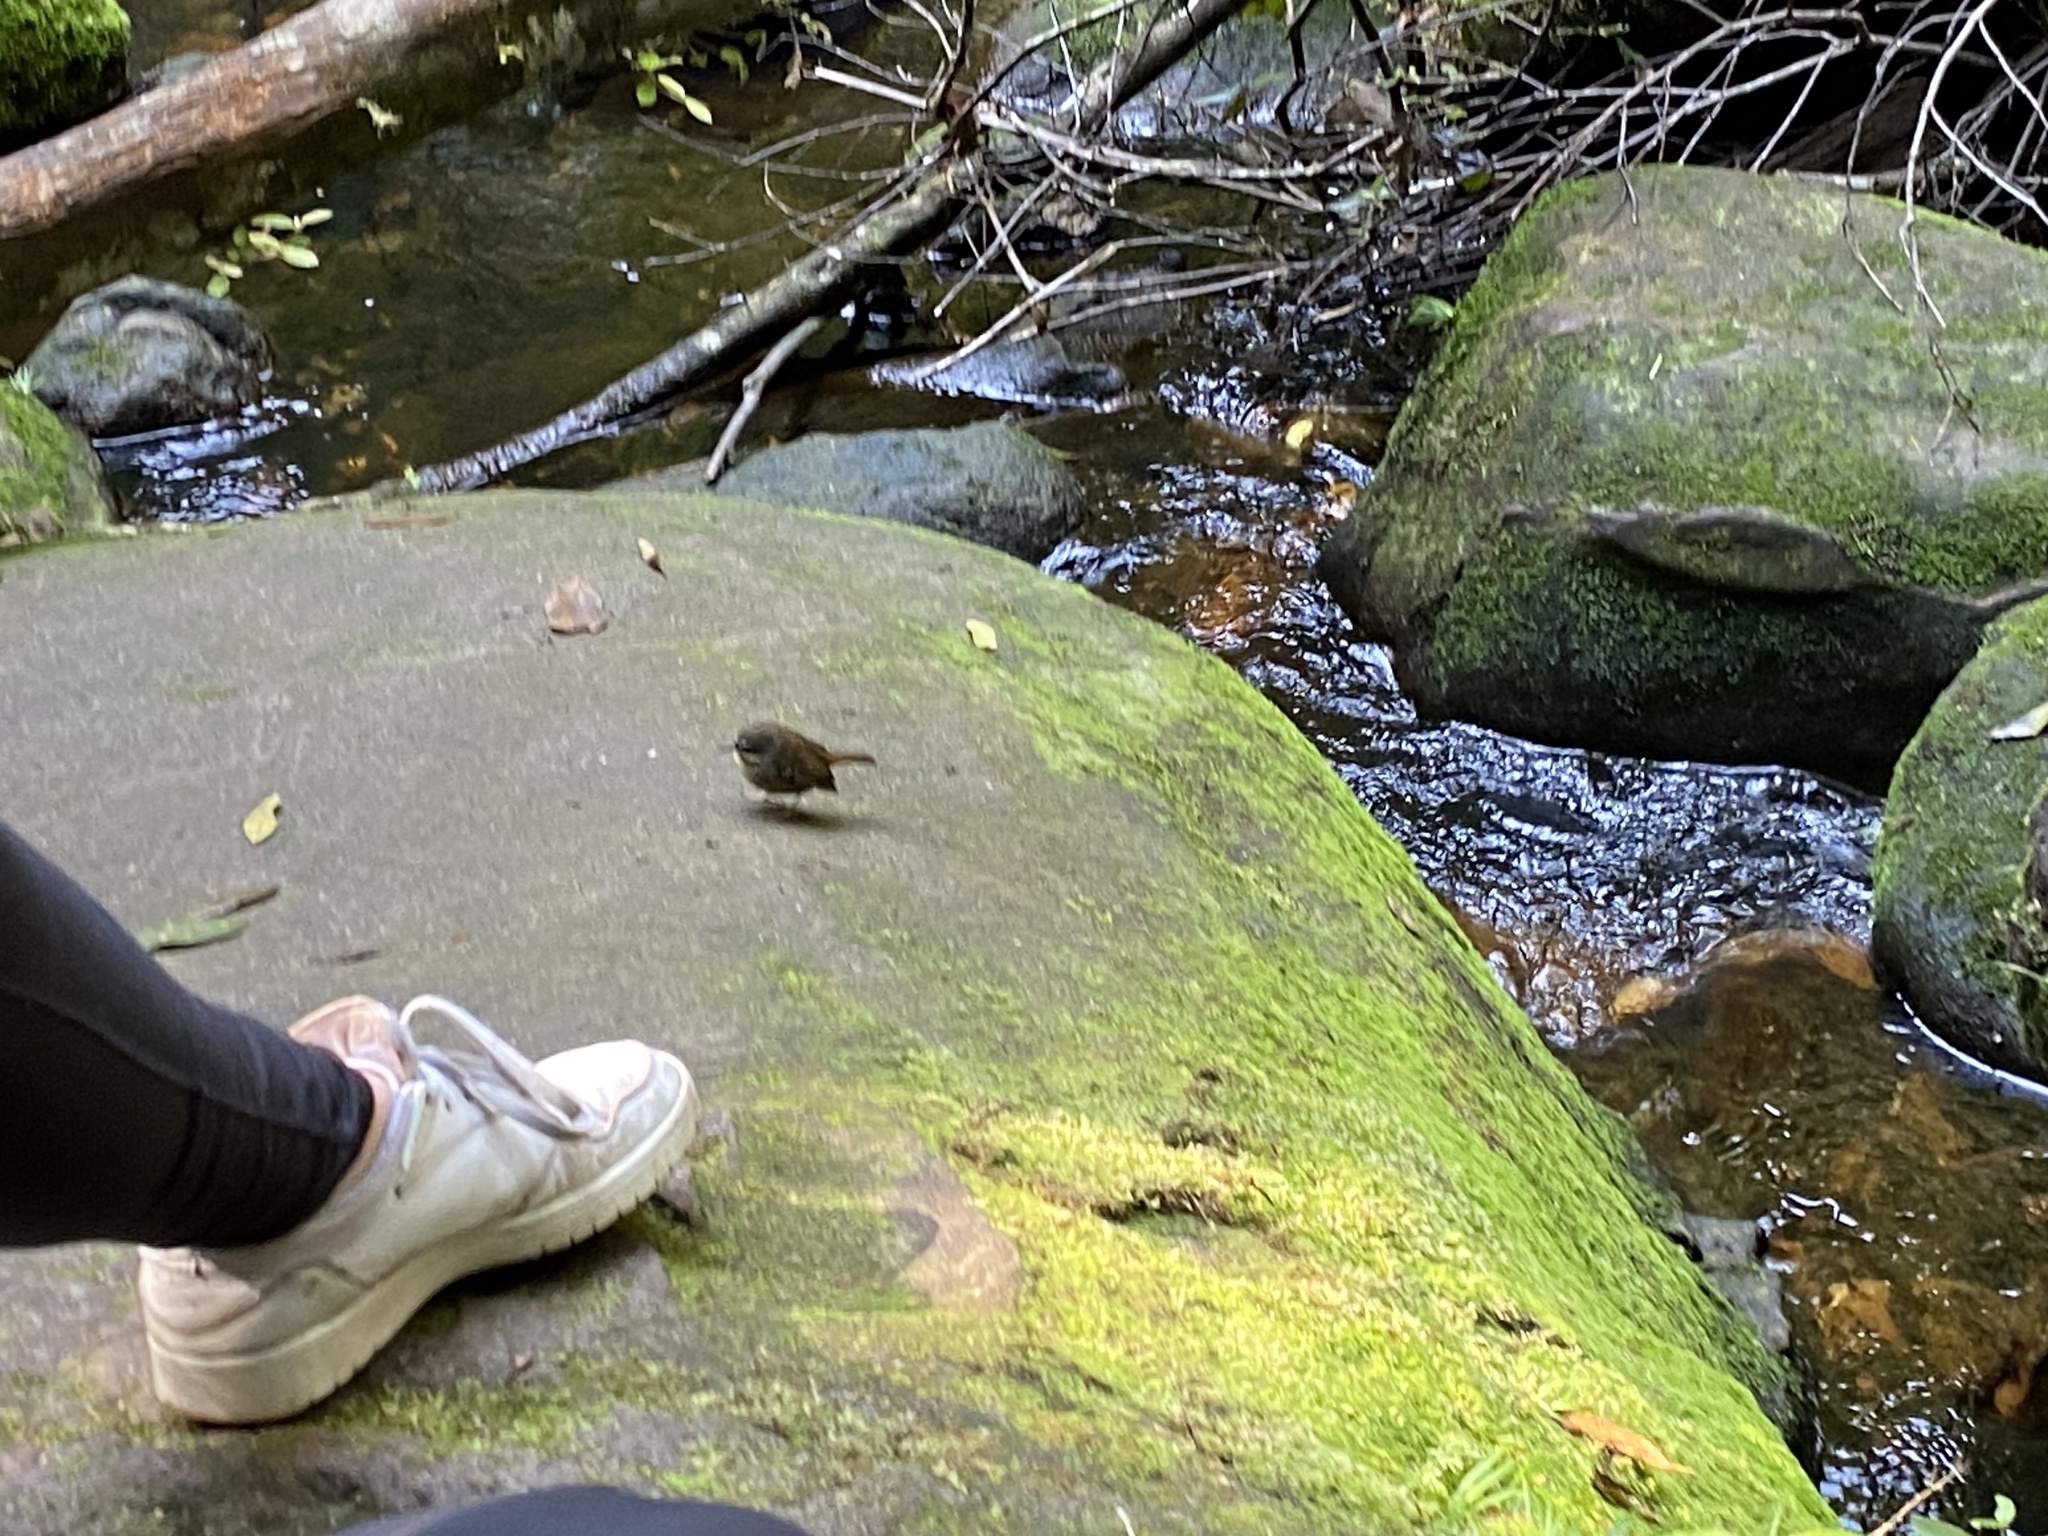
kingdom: Animalia
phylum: Chordata
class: Aves
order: Passeriformes
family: Acanthizidae
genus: Sericornis
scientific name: Sericornis frontalis
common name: White-browed scrubwren
